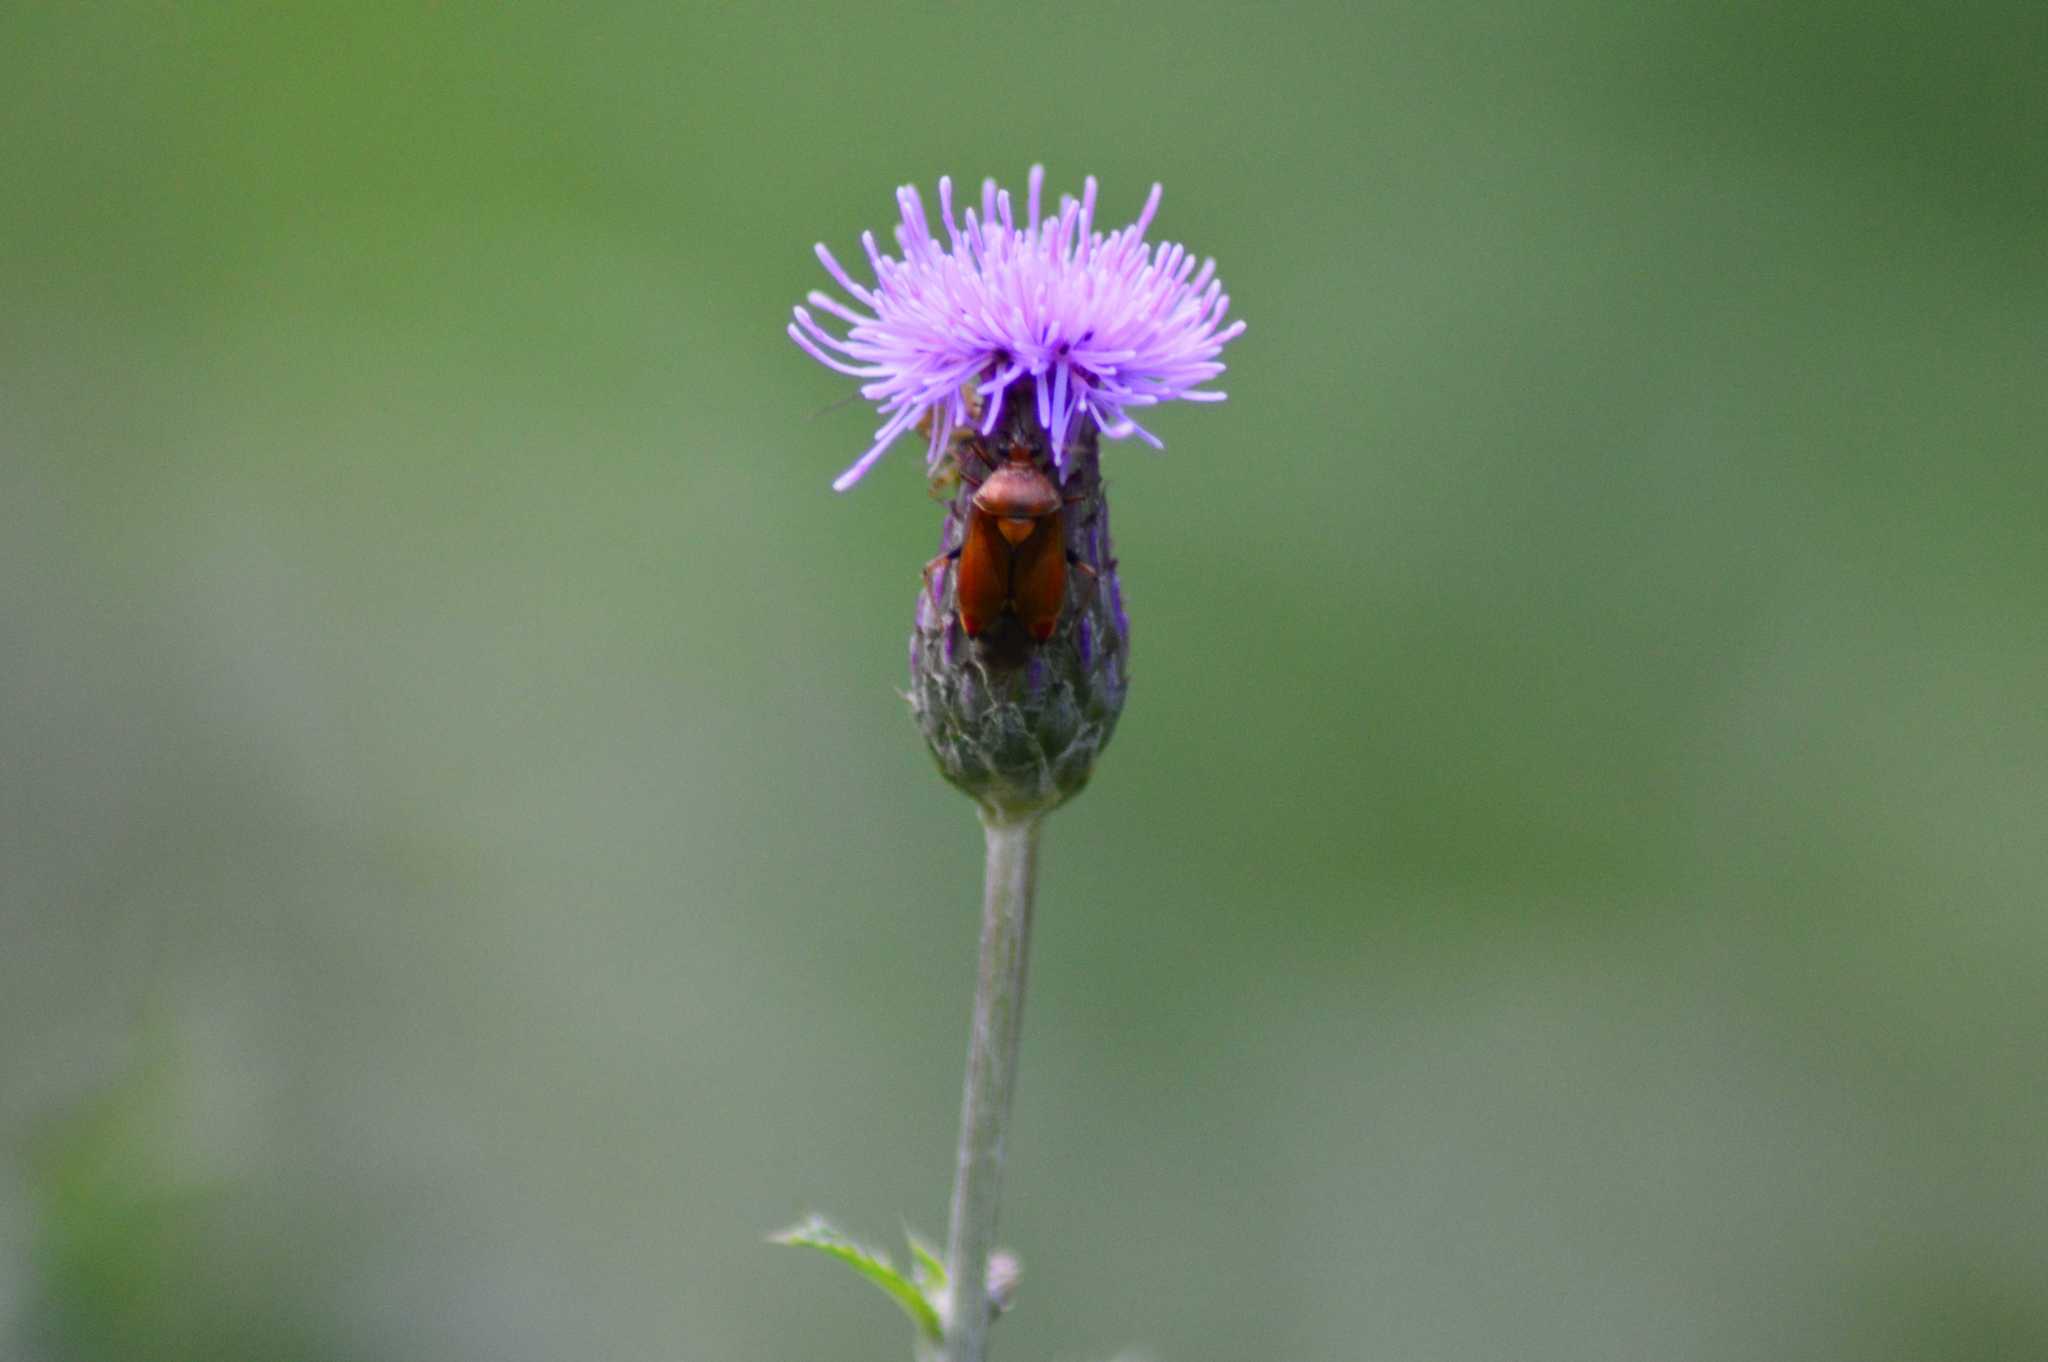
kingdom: Animalia
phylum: Arthropoda
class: Insecta
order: Hemiptera
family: Miridae
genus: Deraeocoris
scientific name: Deraeocoris ruber
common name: Plant bug
